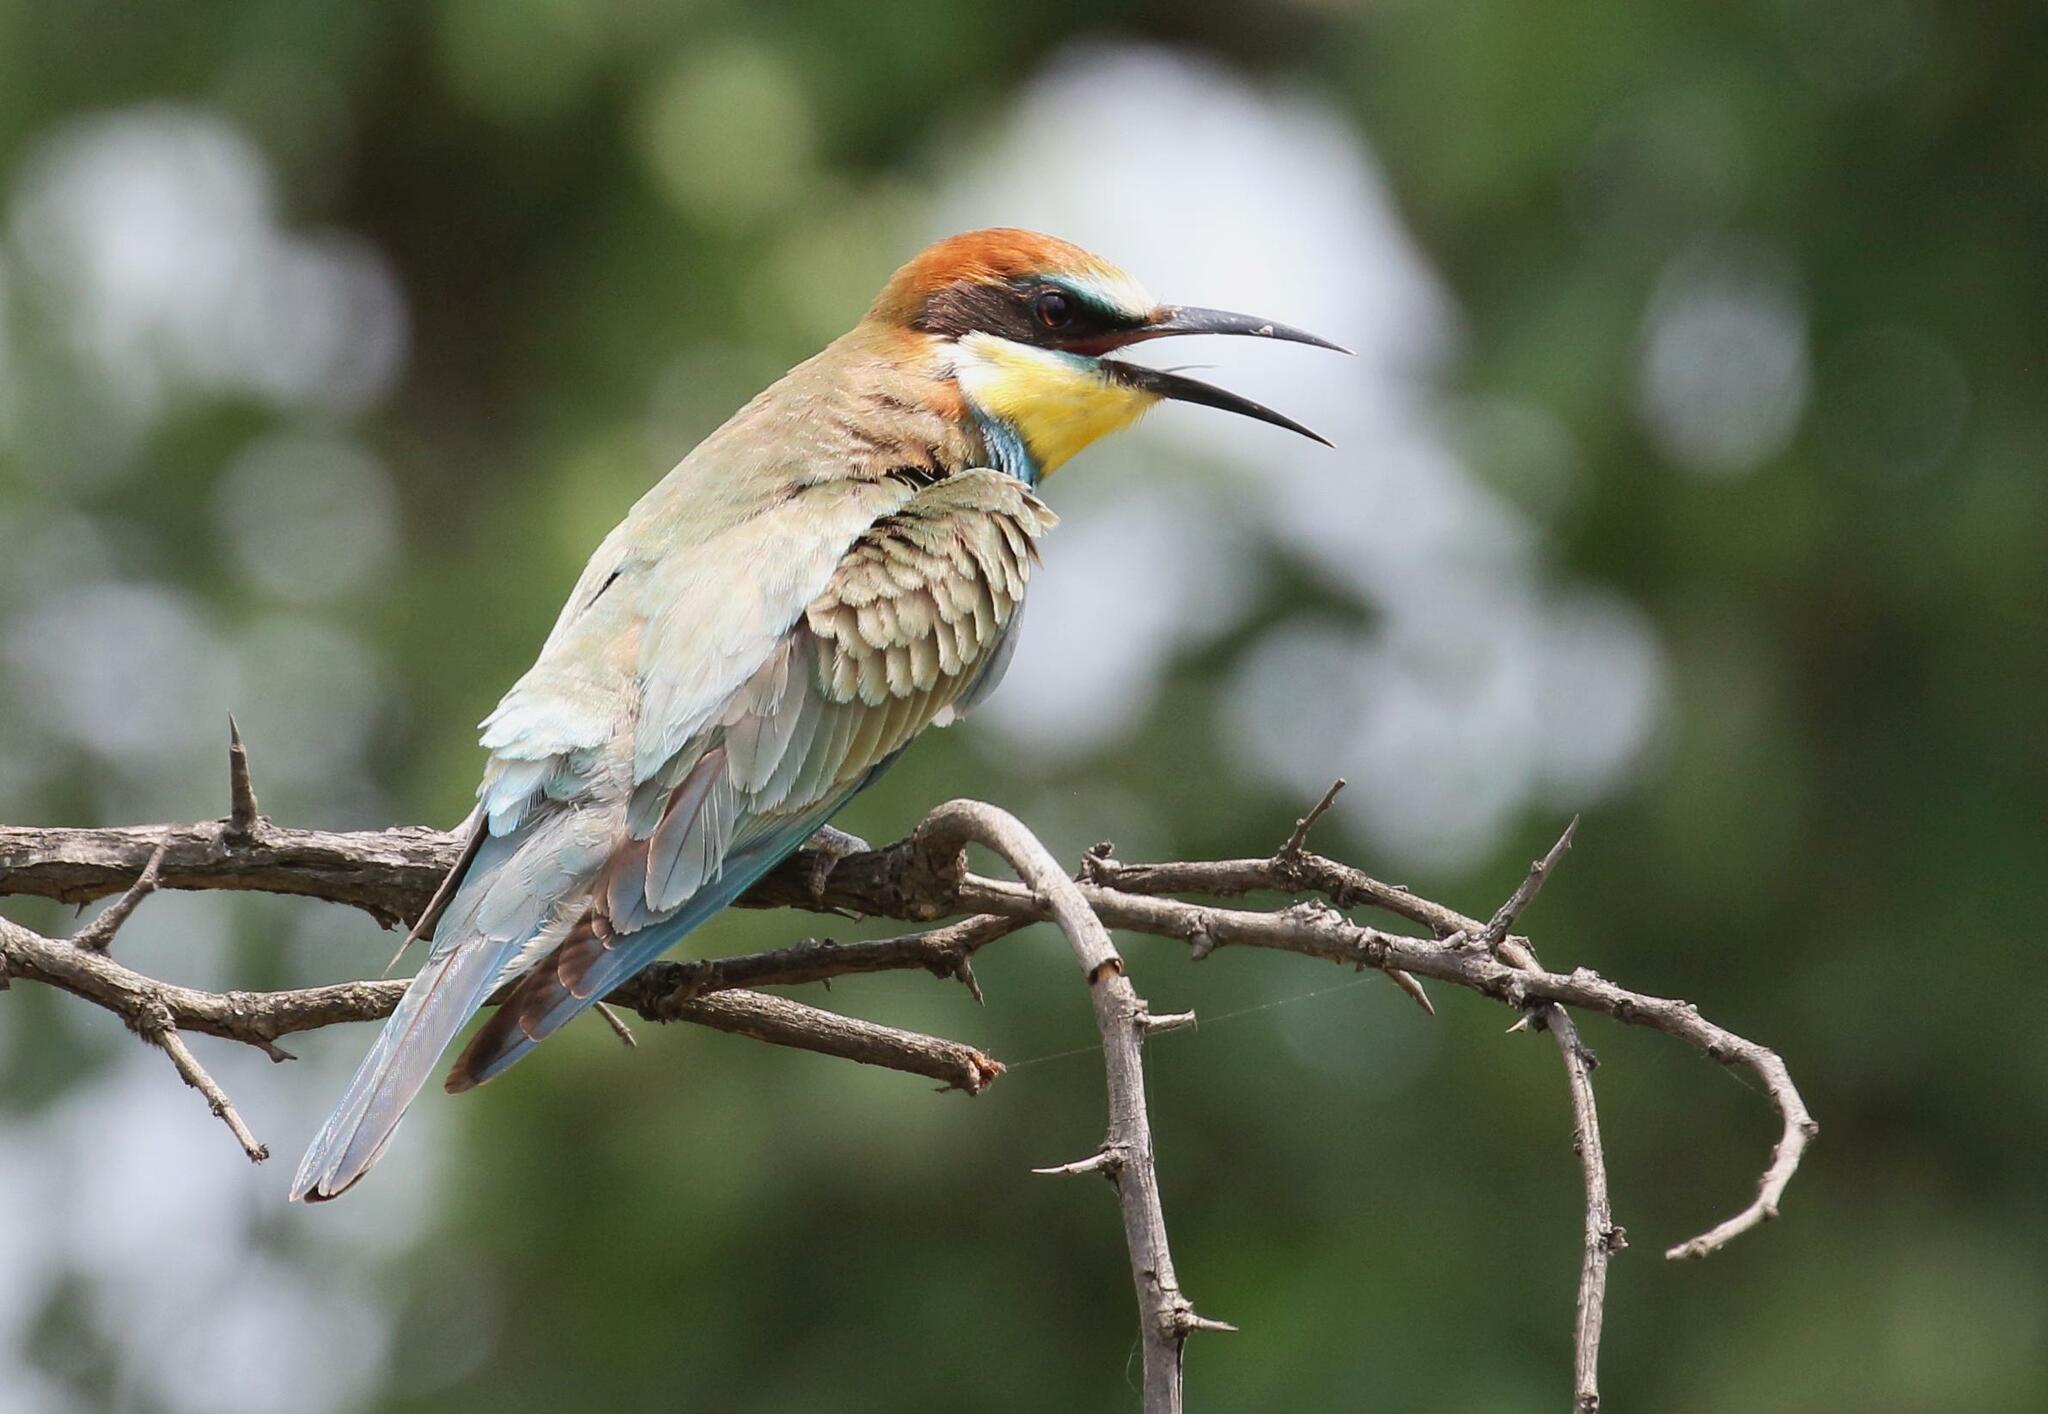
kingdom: Animalia
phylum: Chordata
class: Aves
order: Coraciiformes
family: Meropidae
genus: Merops
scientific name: Merops apiaster
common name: European bee-eater
